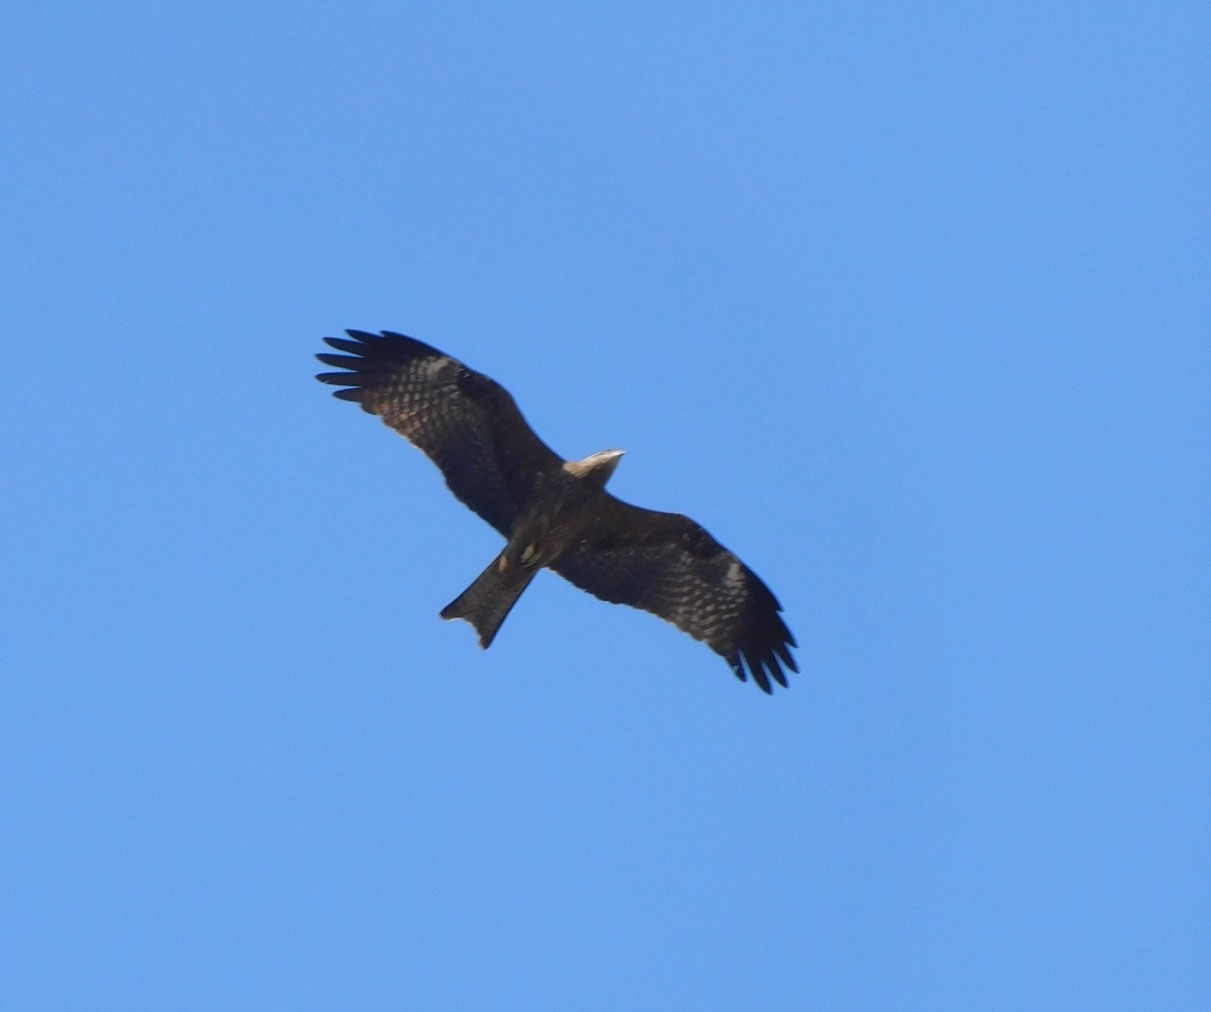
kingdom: Animalia
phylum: Chordata
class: Aves
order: Accipitriformes
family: Accipitridae
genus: Milvus
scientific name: Milvus migrans
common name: Black kite
